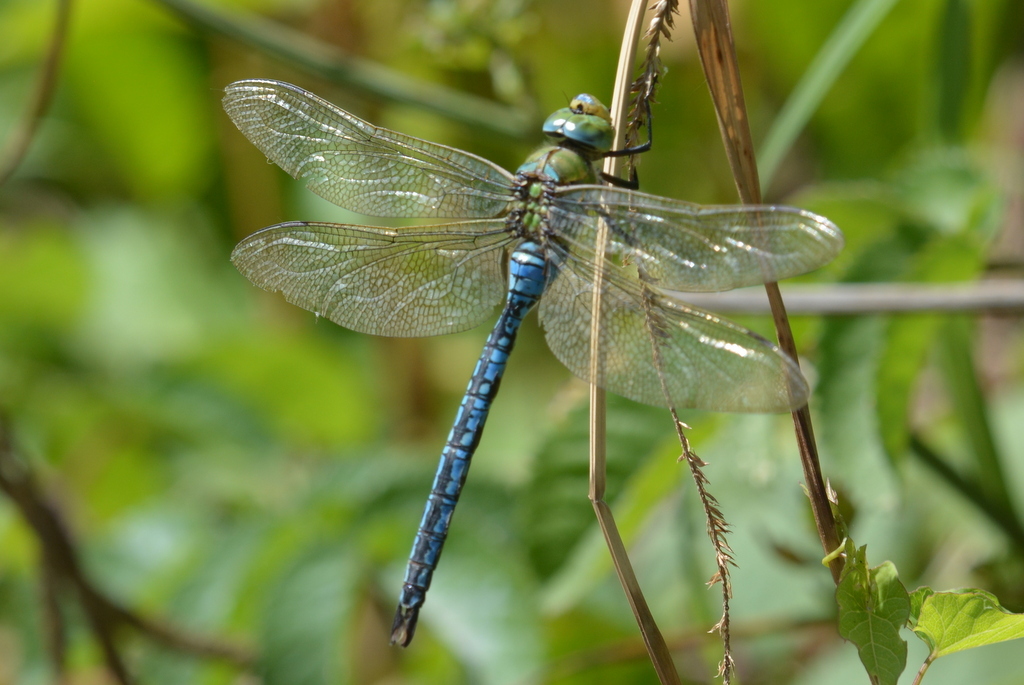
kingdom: Animalia
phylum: Arthropoda
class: Insecta
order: Odonata
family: Aeshnidae
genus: Anax
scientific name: Anax imperator
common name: Emperor dragonfly
